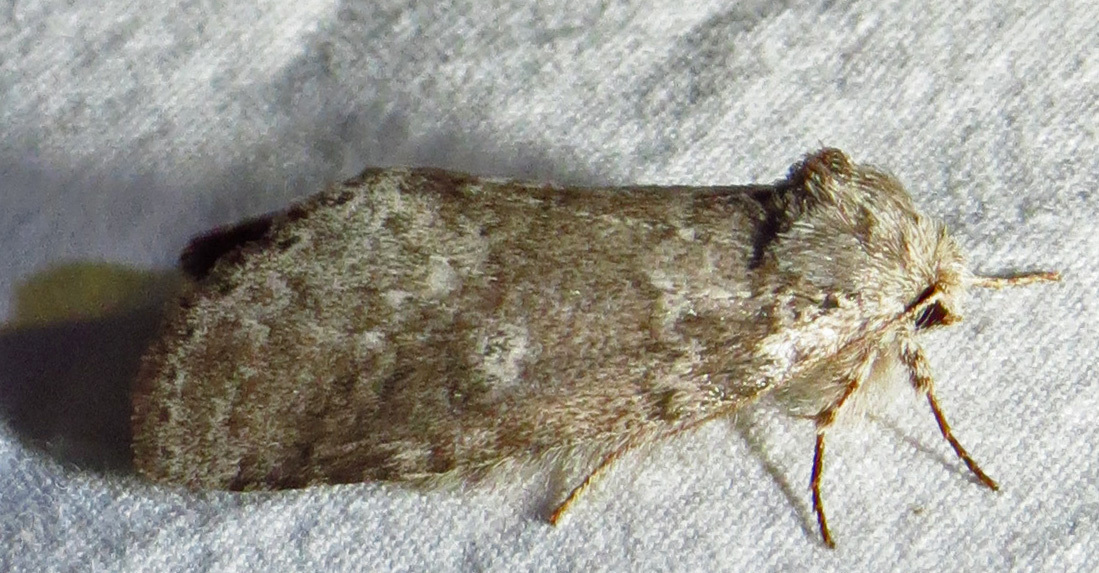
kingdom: Animalia
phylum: Arthropoda
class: Insecta
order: Lepidoptera
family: Notodontidae
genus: Lochmaeus
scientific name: Lochmaeus manteo
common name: Variable oakleaf caterpillar moth
